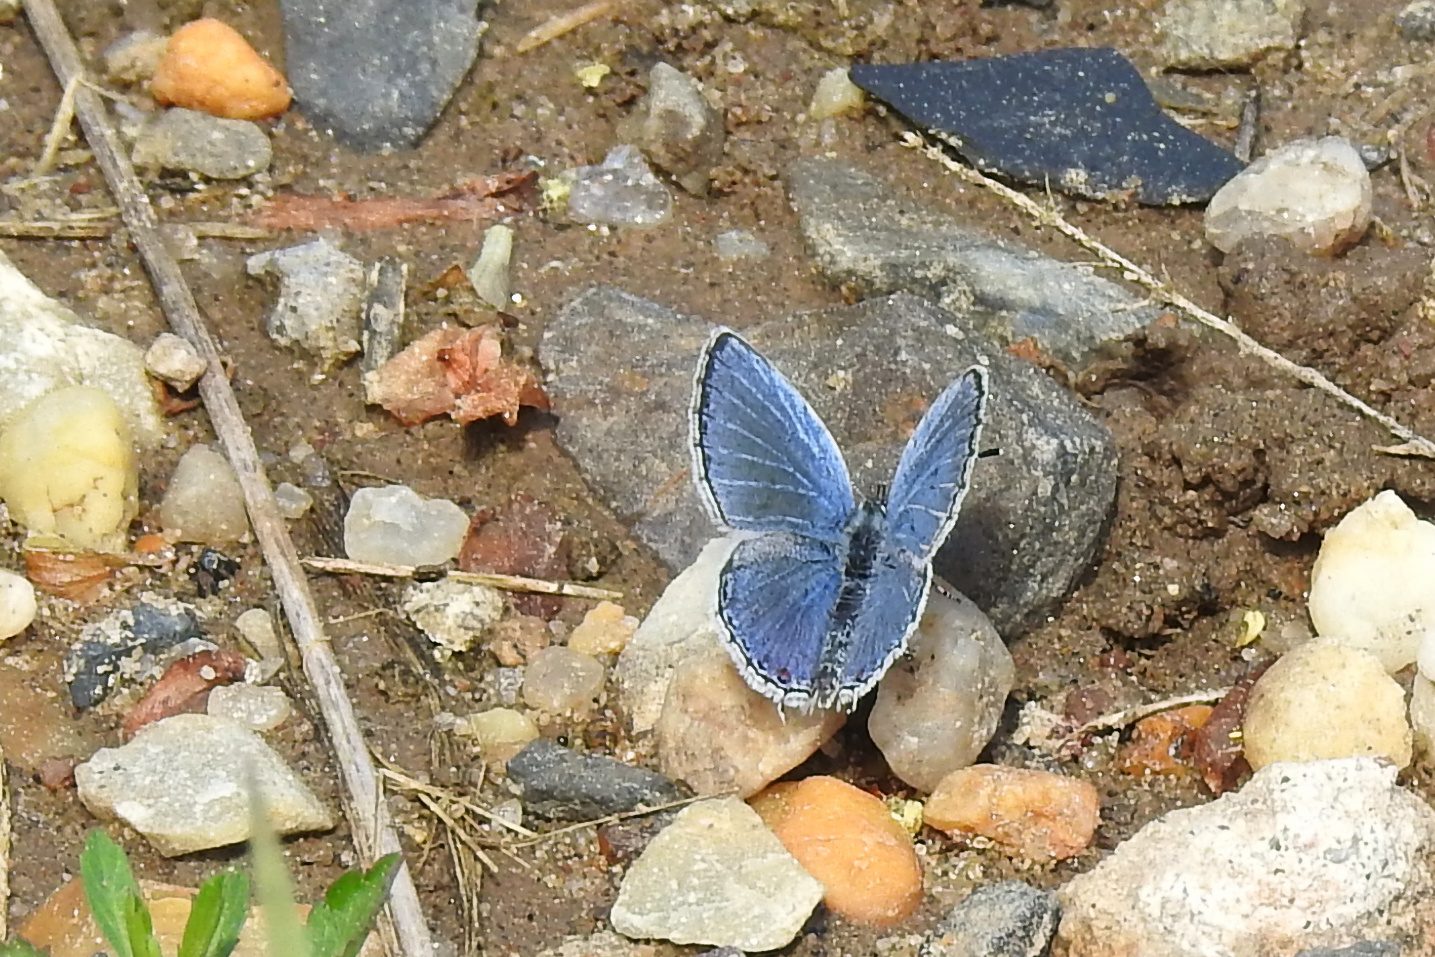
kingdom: Animalia
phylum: Arthropoda
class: Insecta
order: Lepidoptera
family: Lycaenidae
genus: Elkalyce
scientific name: Elkalyce comyntas
